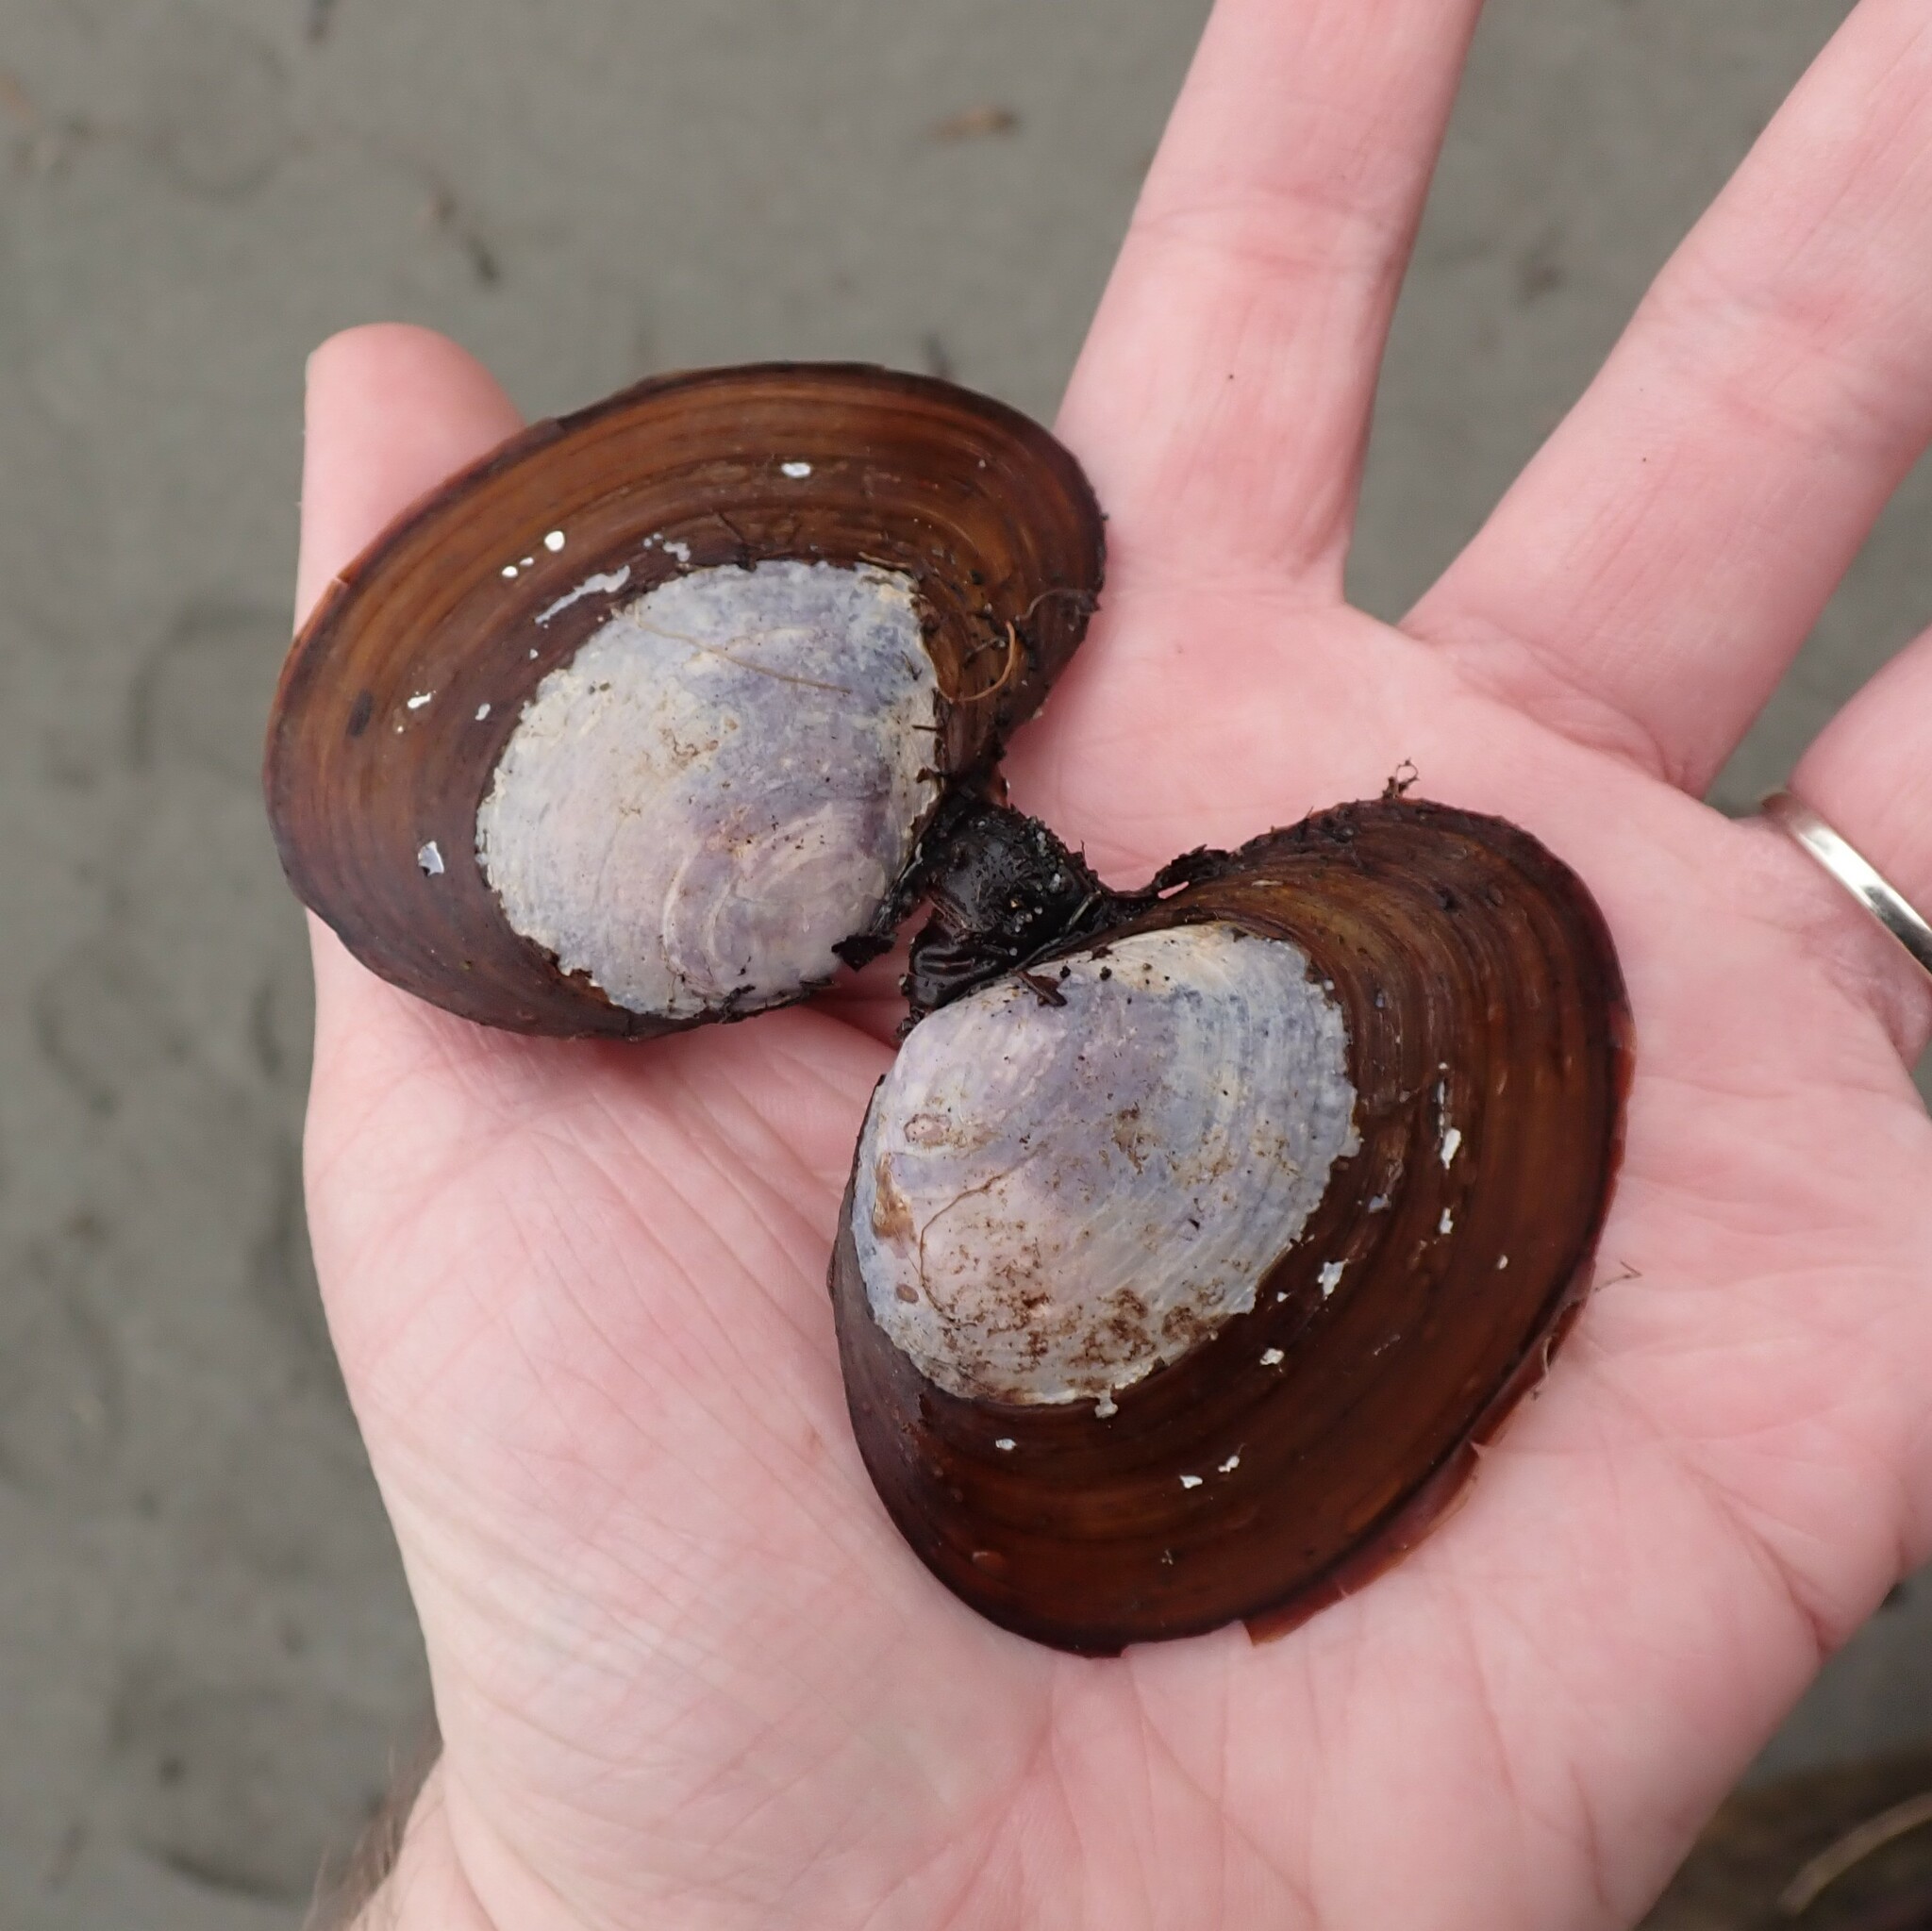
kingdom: Animalia
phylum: Mollusca
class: Bivalvia
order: Cardiida
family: Psammobiidae
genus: Nuttallia
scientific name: Nuttallia obscurata
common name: Purple mahogany-clam
